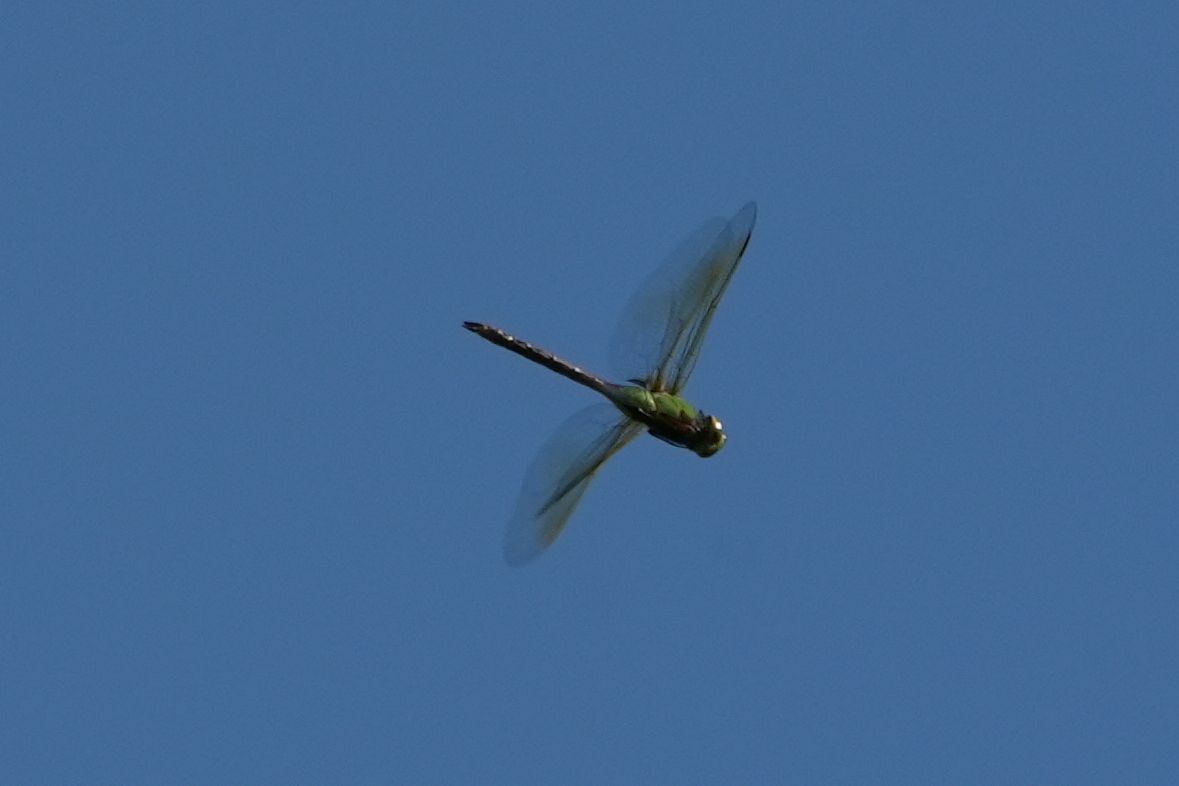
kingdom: Animalia
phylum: Arthropoda
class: Insecta
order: Odonata
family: Aeshnidae
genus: Anax
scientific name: Anax junius
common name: Common green darner
